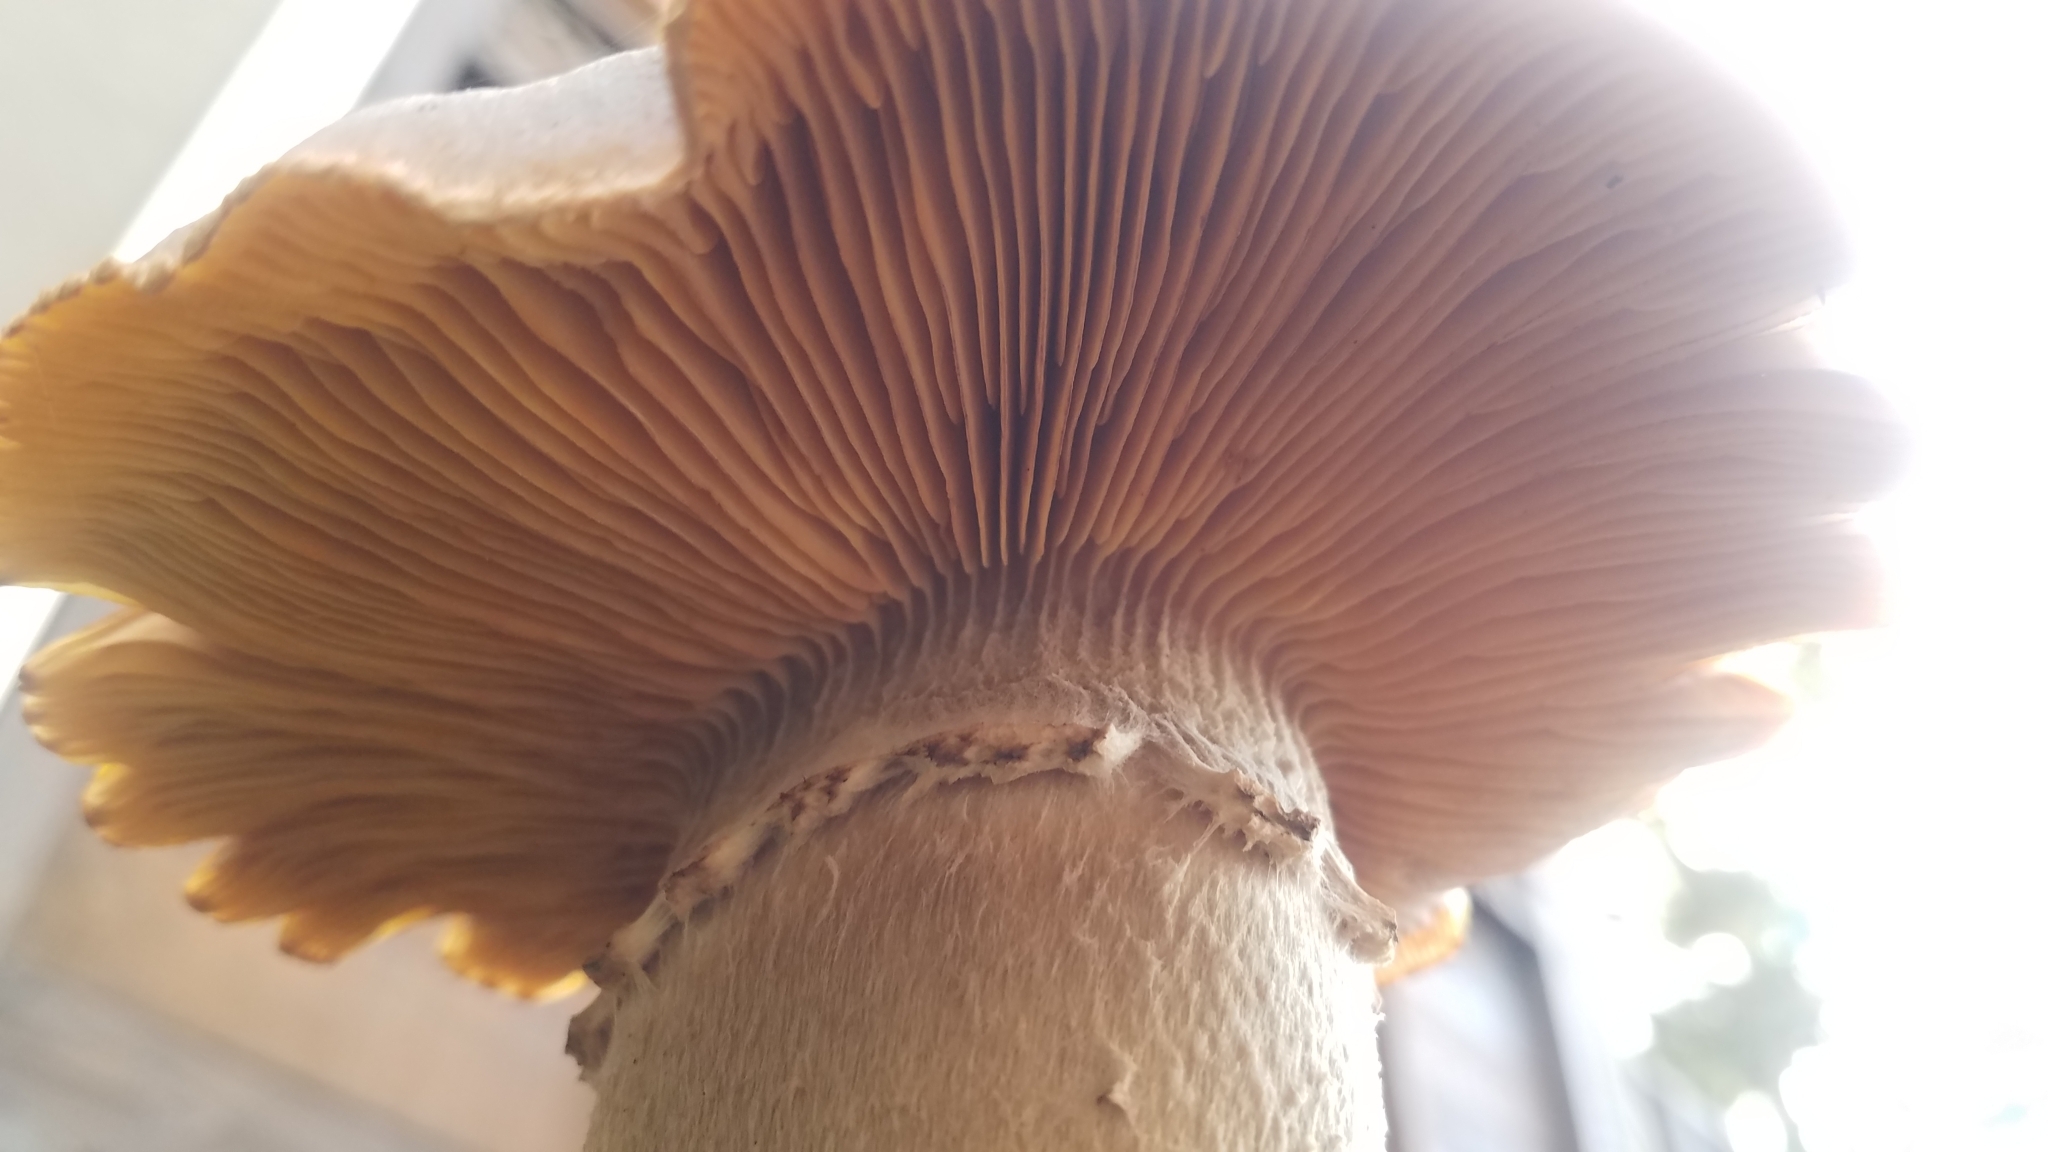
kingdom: Fungi
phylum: Basidiomycota
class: Agaricomycetes
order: Agaricales
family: Physalacriaceae
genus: Armillaria
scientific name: Armillaria mellea
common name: Honey fungus
